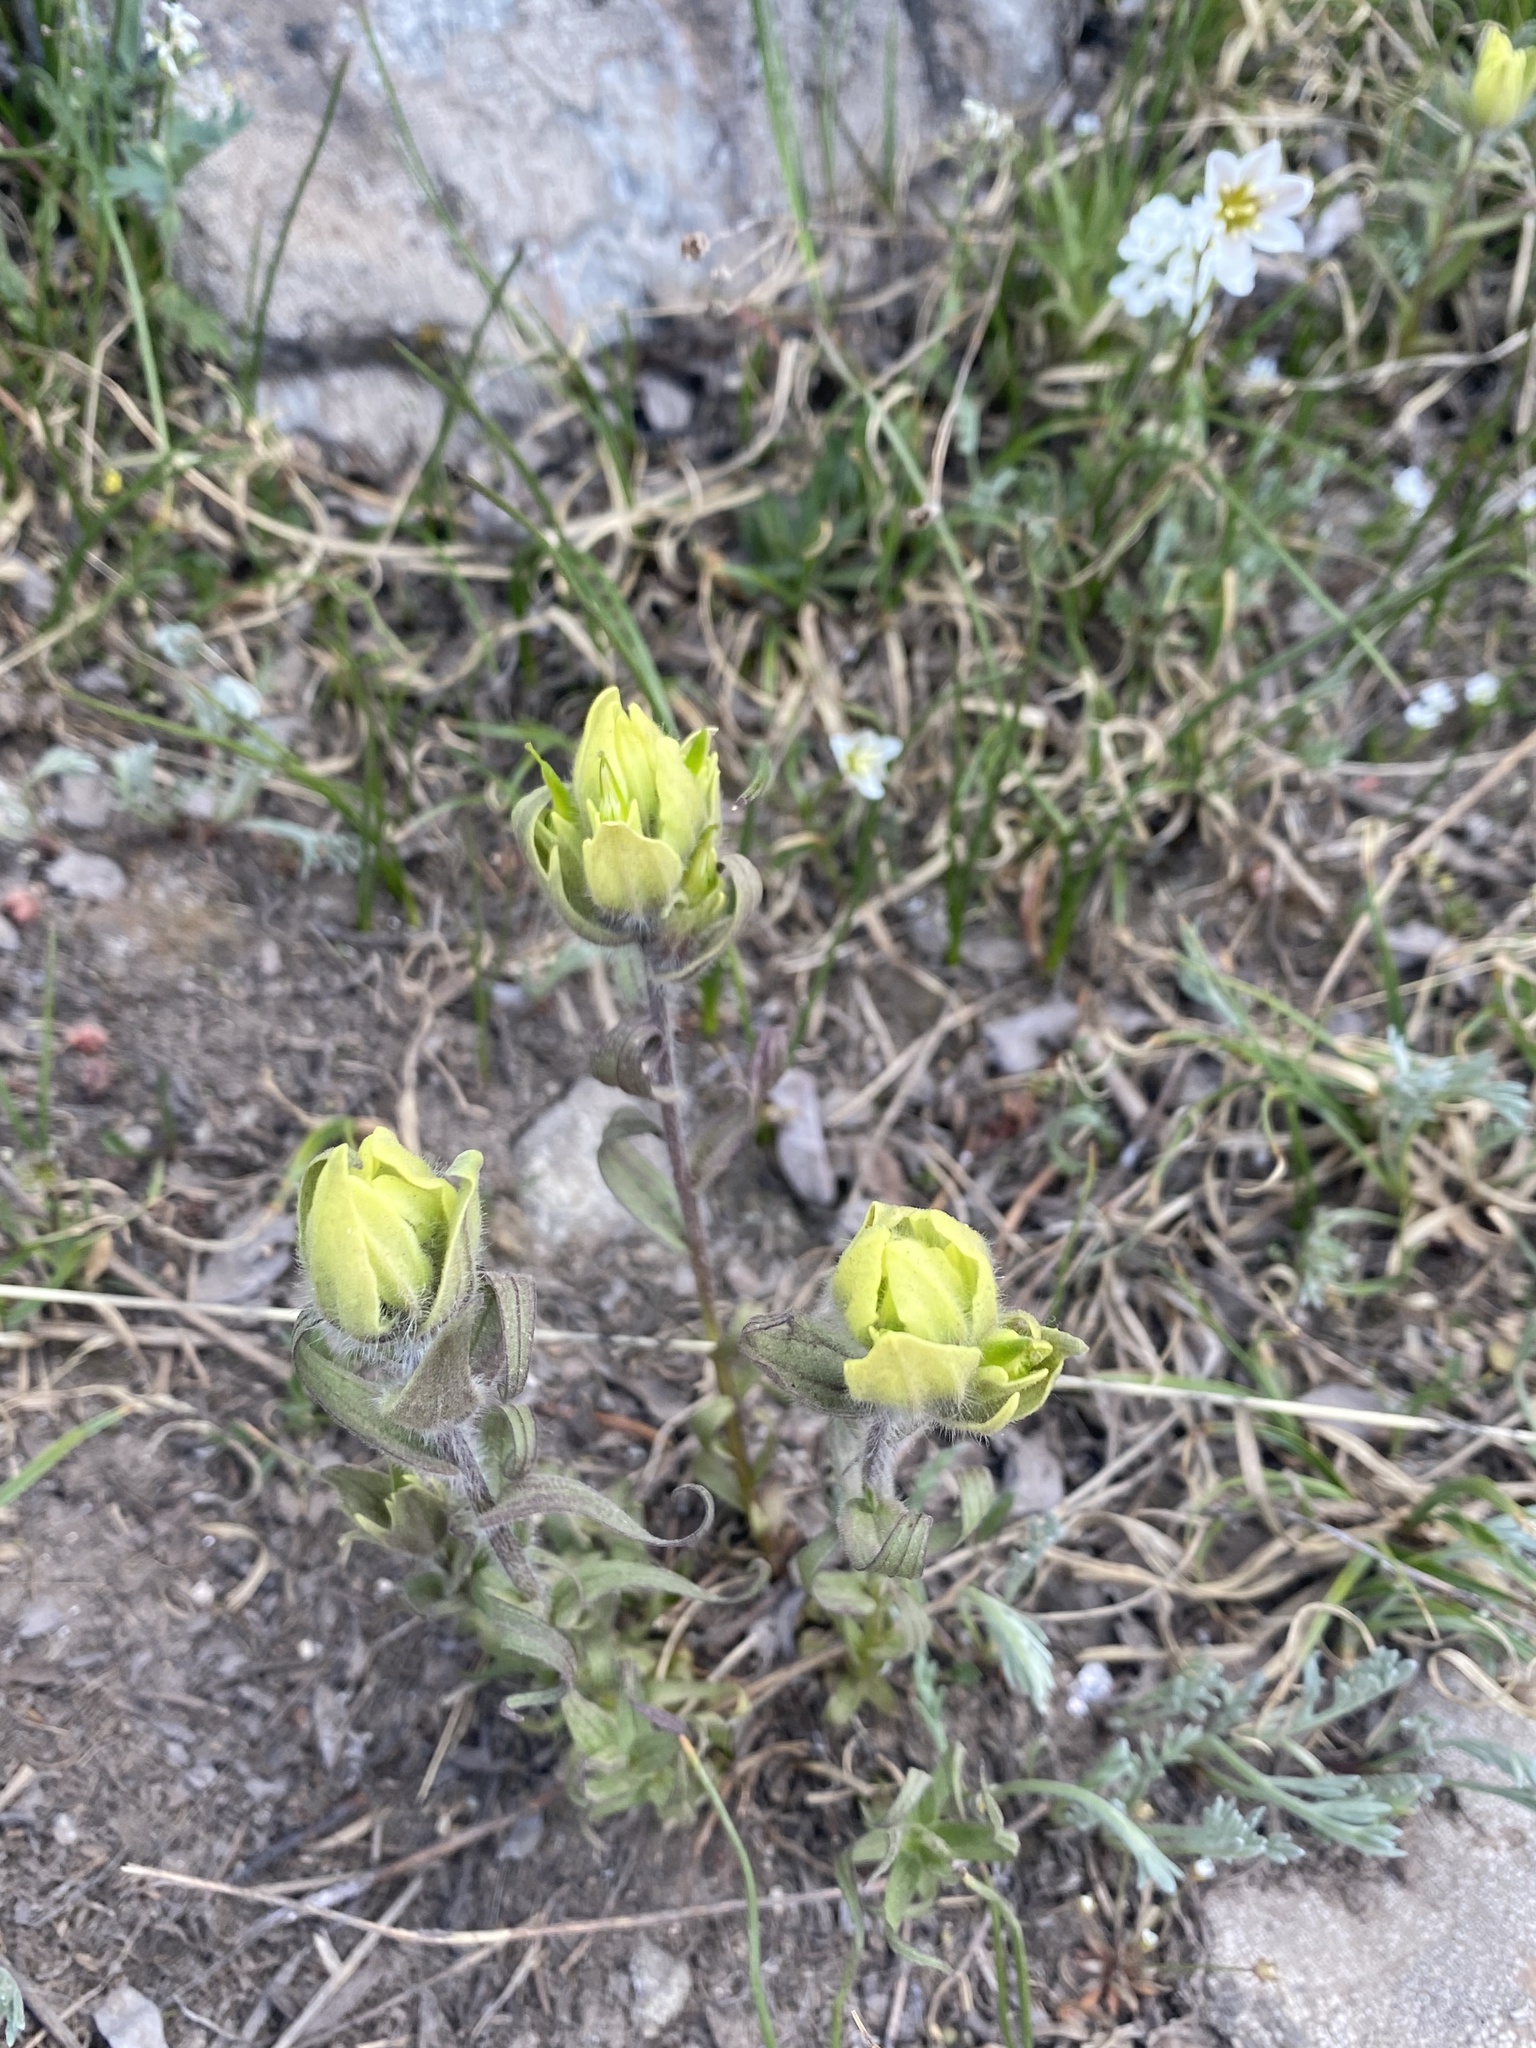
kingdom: Plantae
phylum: Tracheophyta
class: Magnoliopsida
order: Lamiales
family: Orobanchaceae
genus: Castilleja
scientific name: Castilleja occidentalis
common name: Western paintbrush
